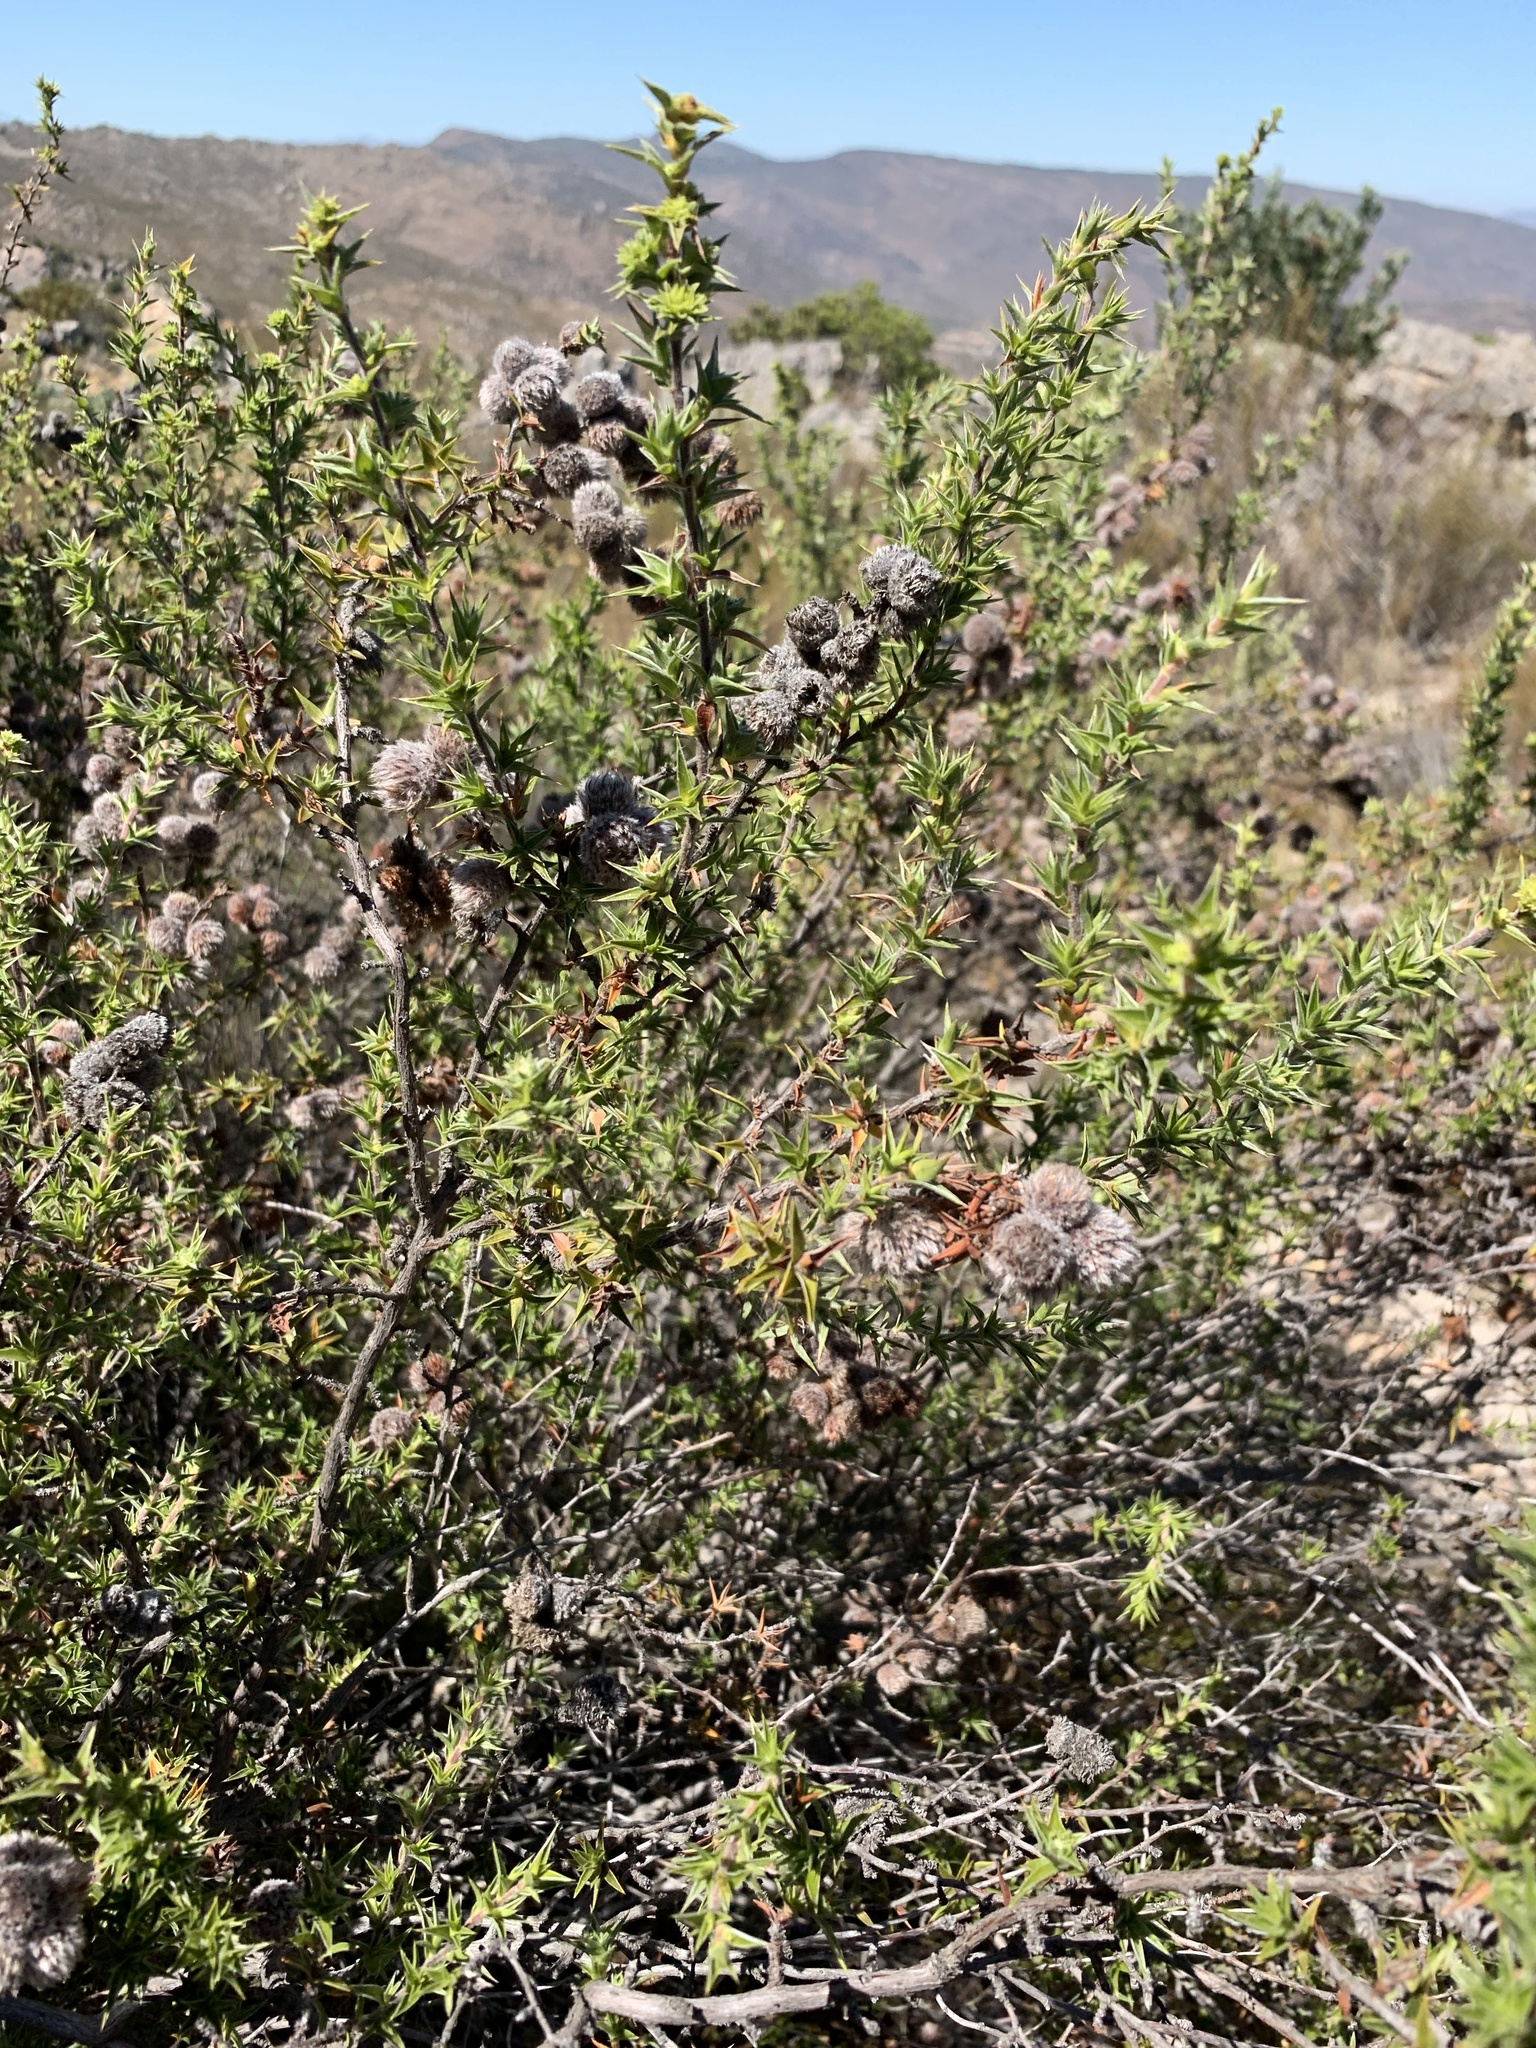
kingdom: Plantae
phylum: Tracheophyta
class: Magnoliopsida
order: Rosales
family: Rosaceae
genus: Cliffortia
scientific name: Cliffortia ruscifolia
